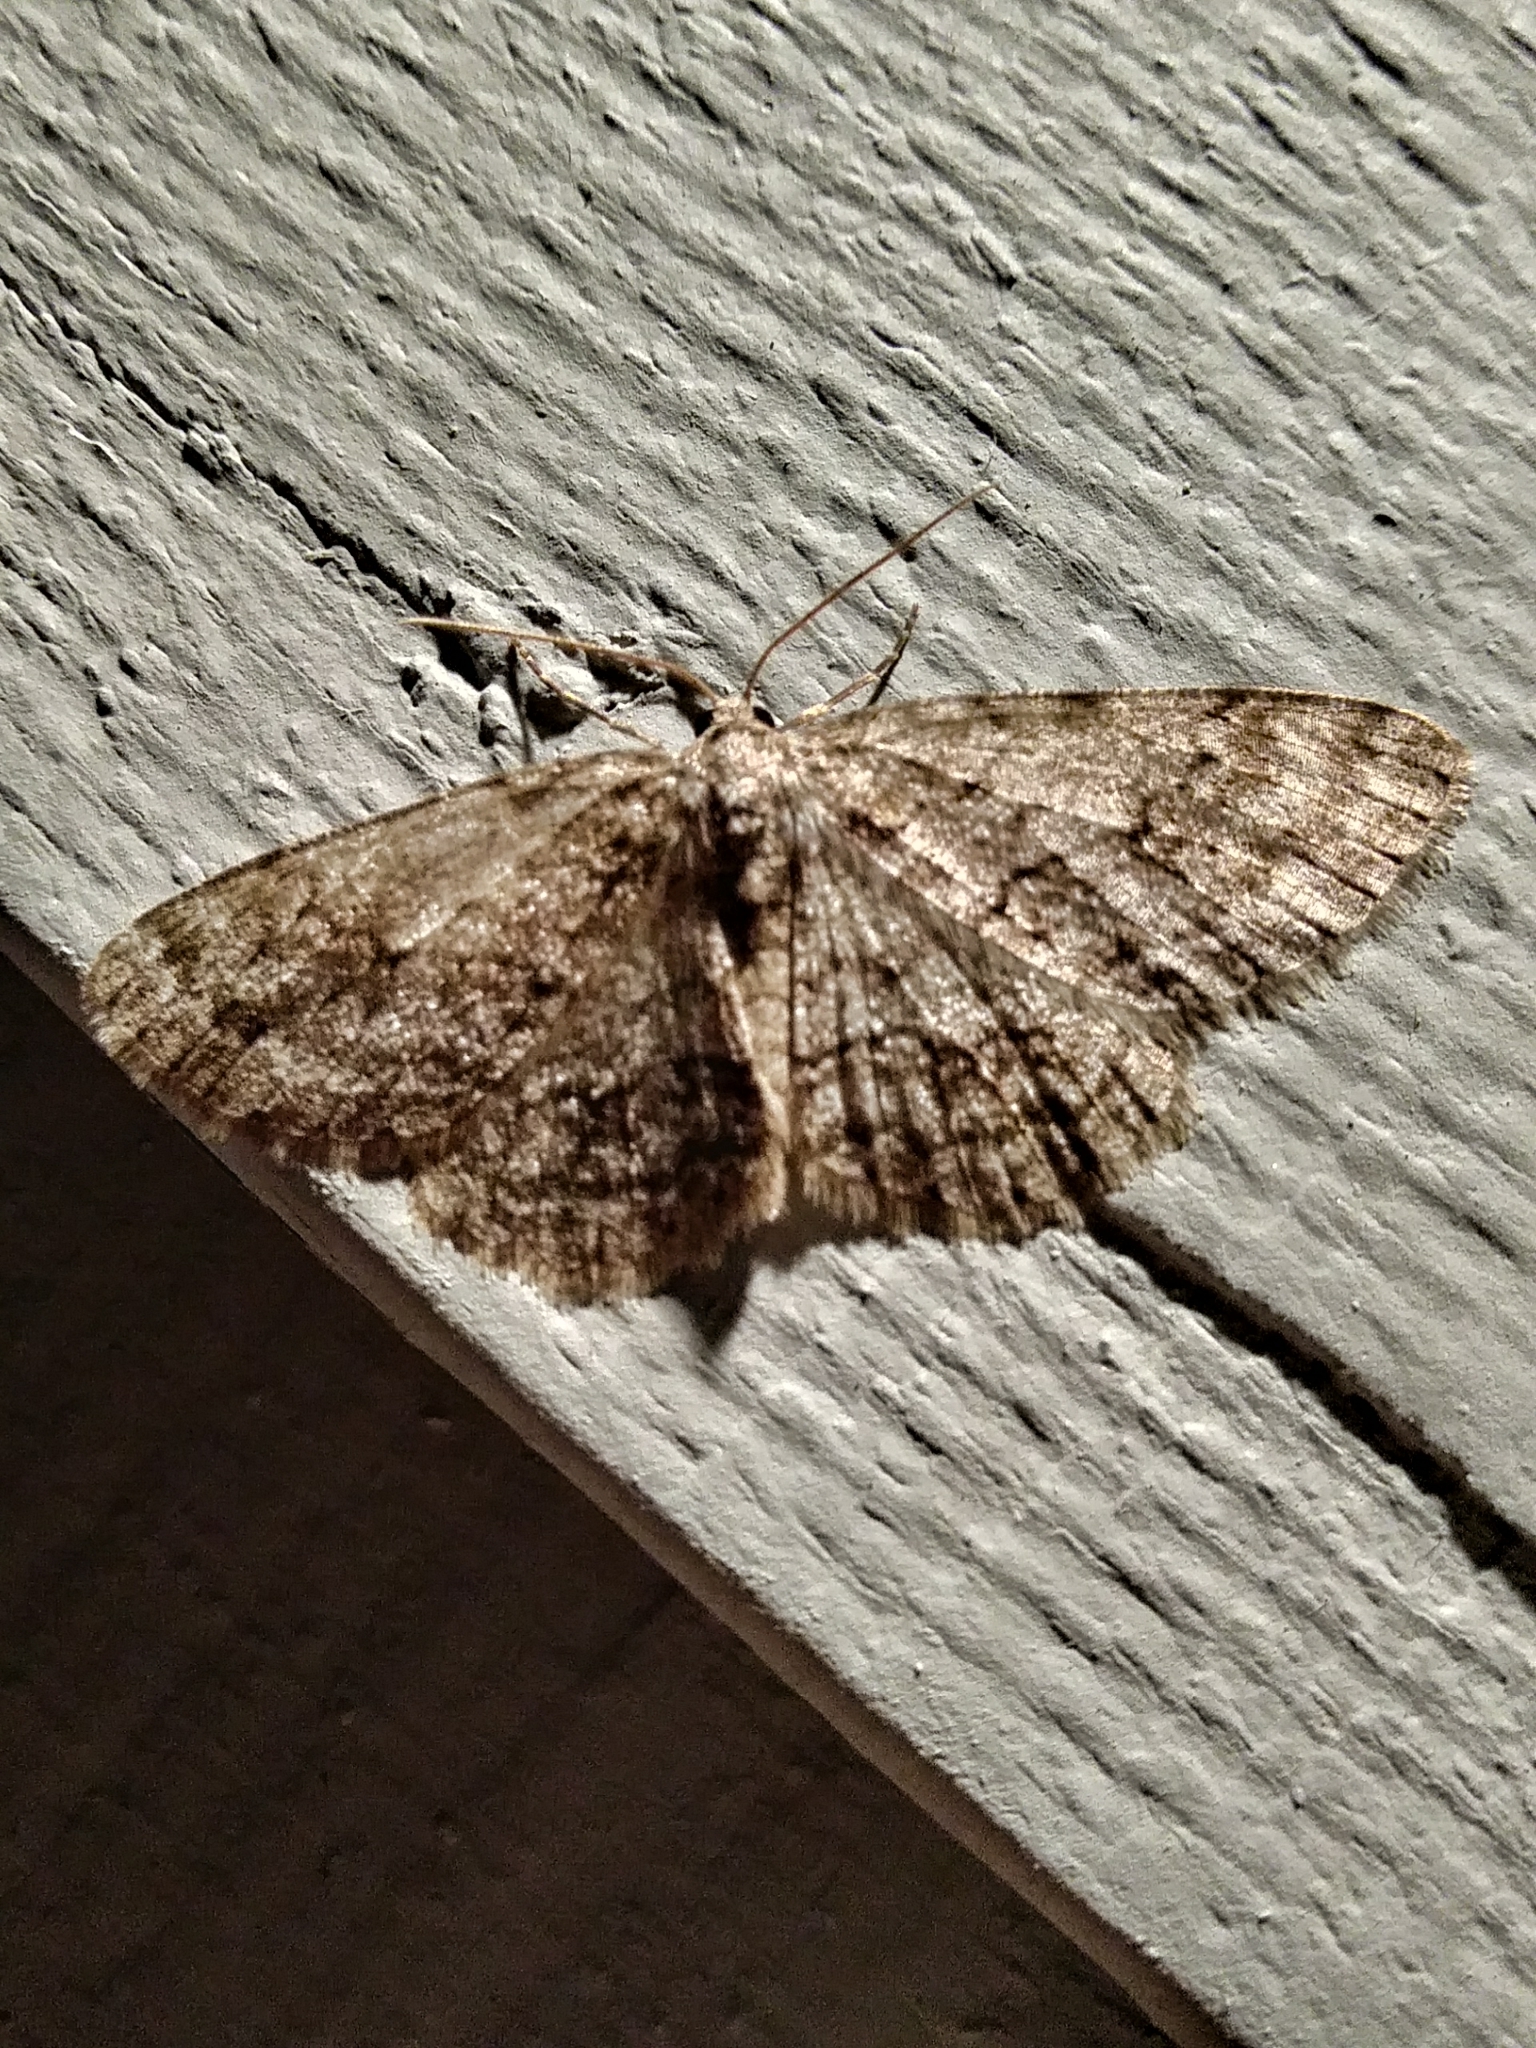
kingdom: Animalia
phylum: Arthropoda
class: Insecta
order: Lepidoptera
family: Geometridae
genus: Ectropis
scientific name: Ectropis crepuscularia
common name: Engrailed
